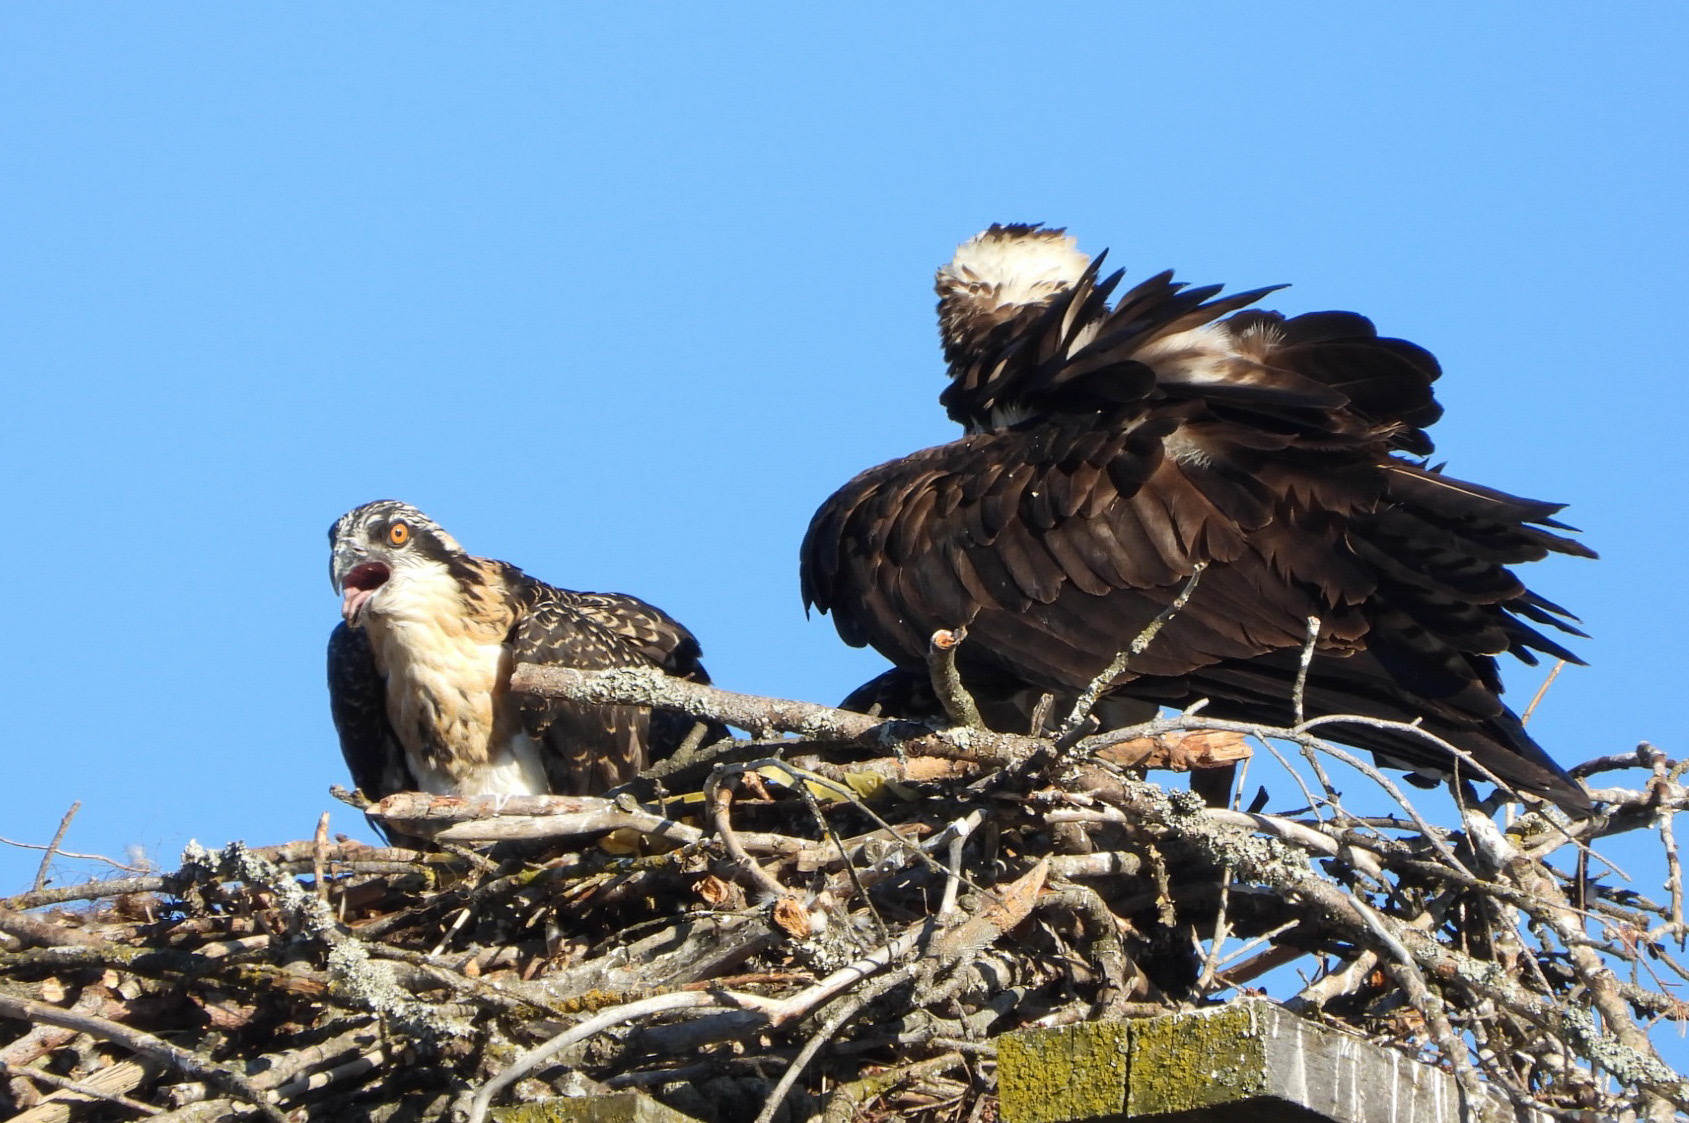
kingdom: Animalia
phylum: Chordata
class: Aves
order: Accipitriformes
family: Pandionidae
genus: Pandion
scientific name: Pandion haliaetus
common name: Osprey
